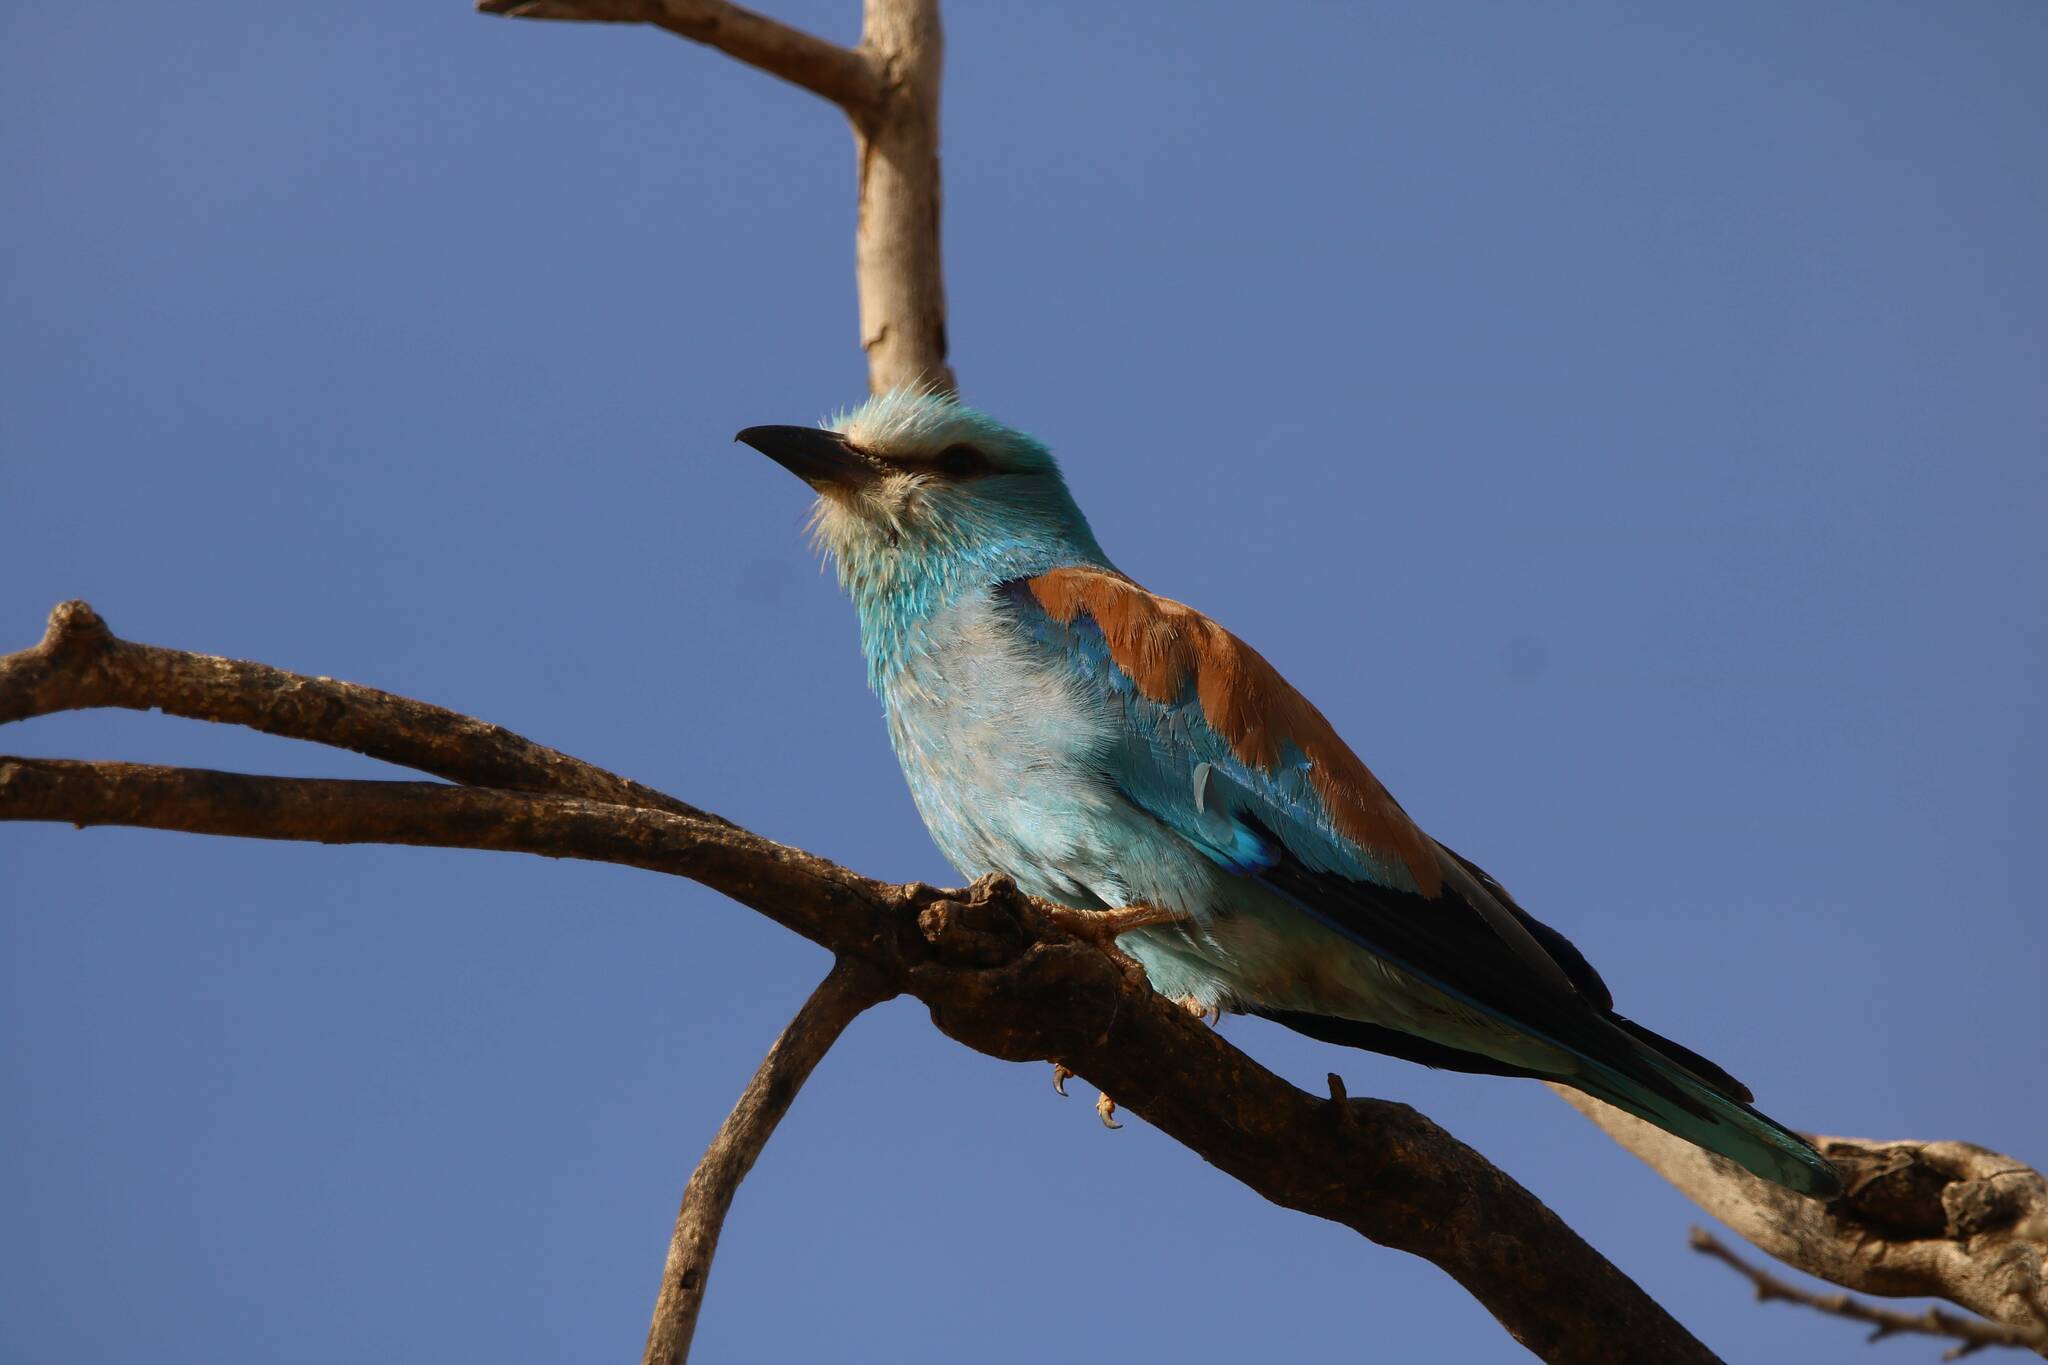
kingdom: Animalia
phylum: Chordata
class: Aves
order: Coraciiformes
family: Coraciidae
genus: Coracias
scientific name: Coracias garrulus
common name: European roller
